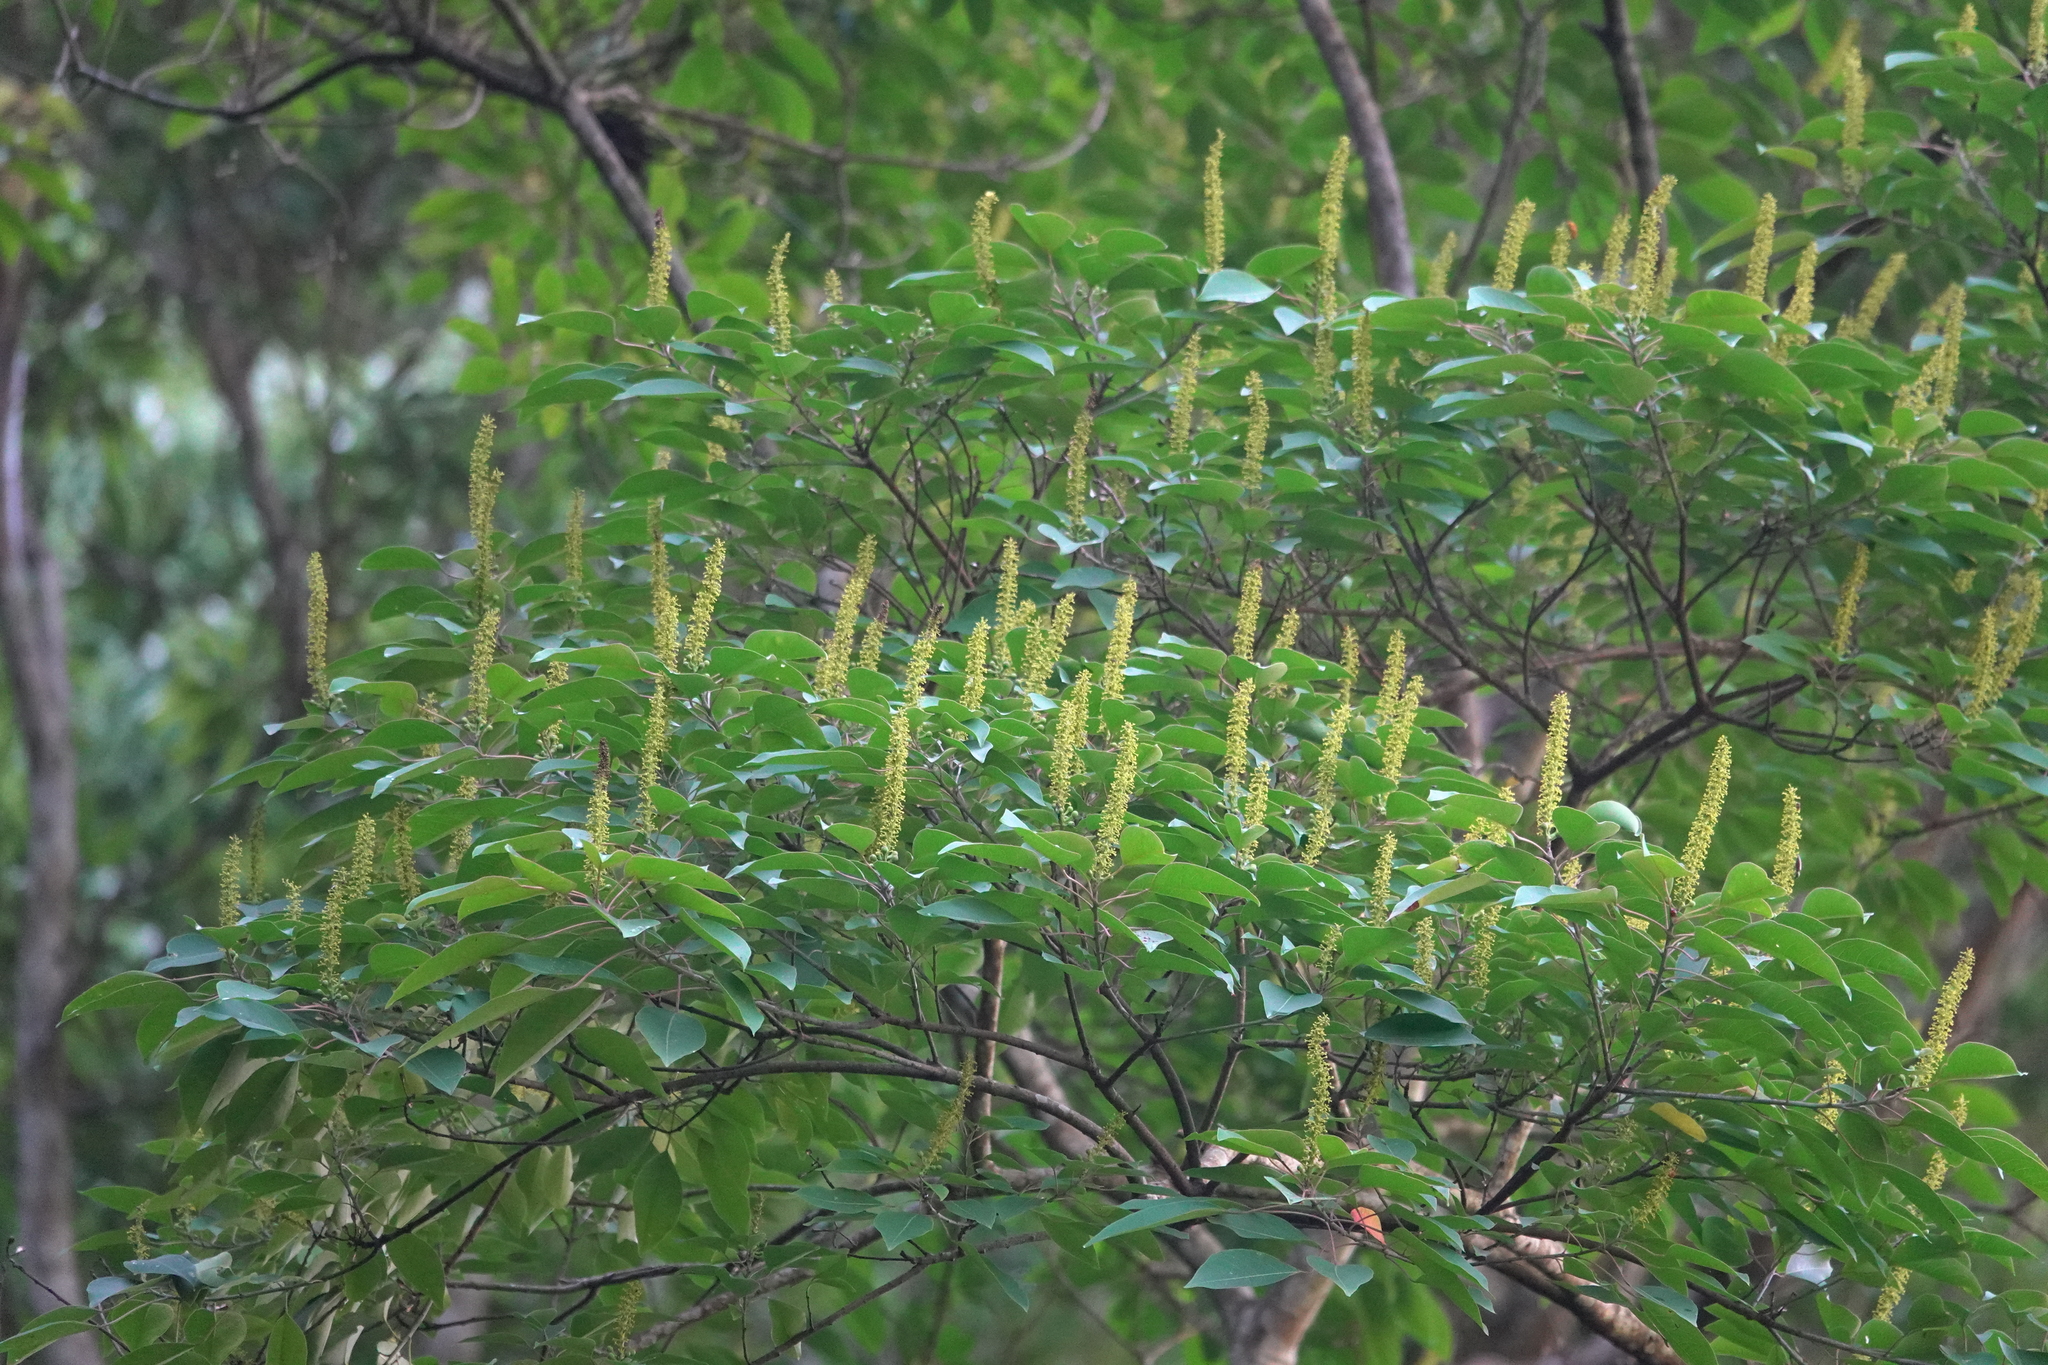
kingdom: Plantae
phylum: Tracheophyta
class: Magnoliopsida
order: Malpighiales
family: Euphorbiaceae
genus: Triadica
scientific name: Triadica cochinchinensis
